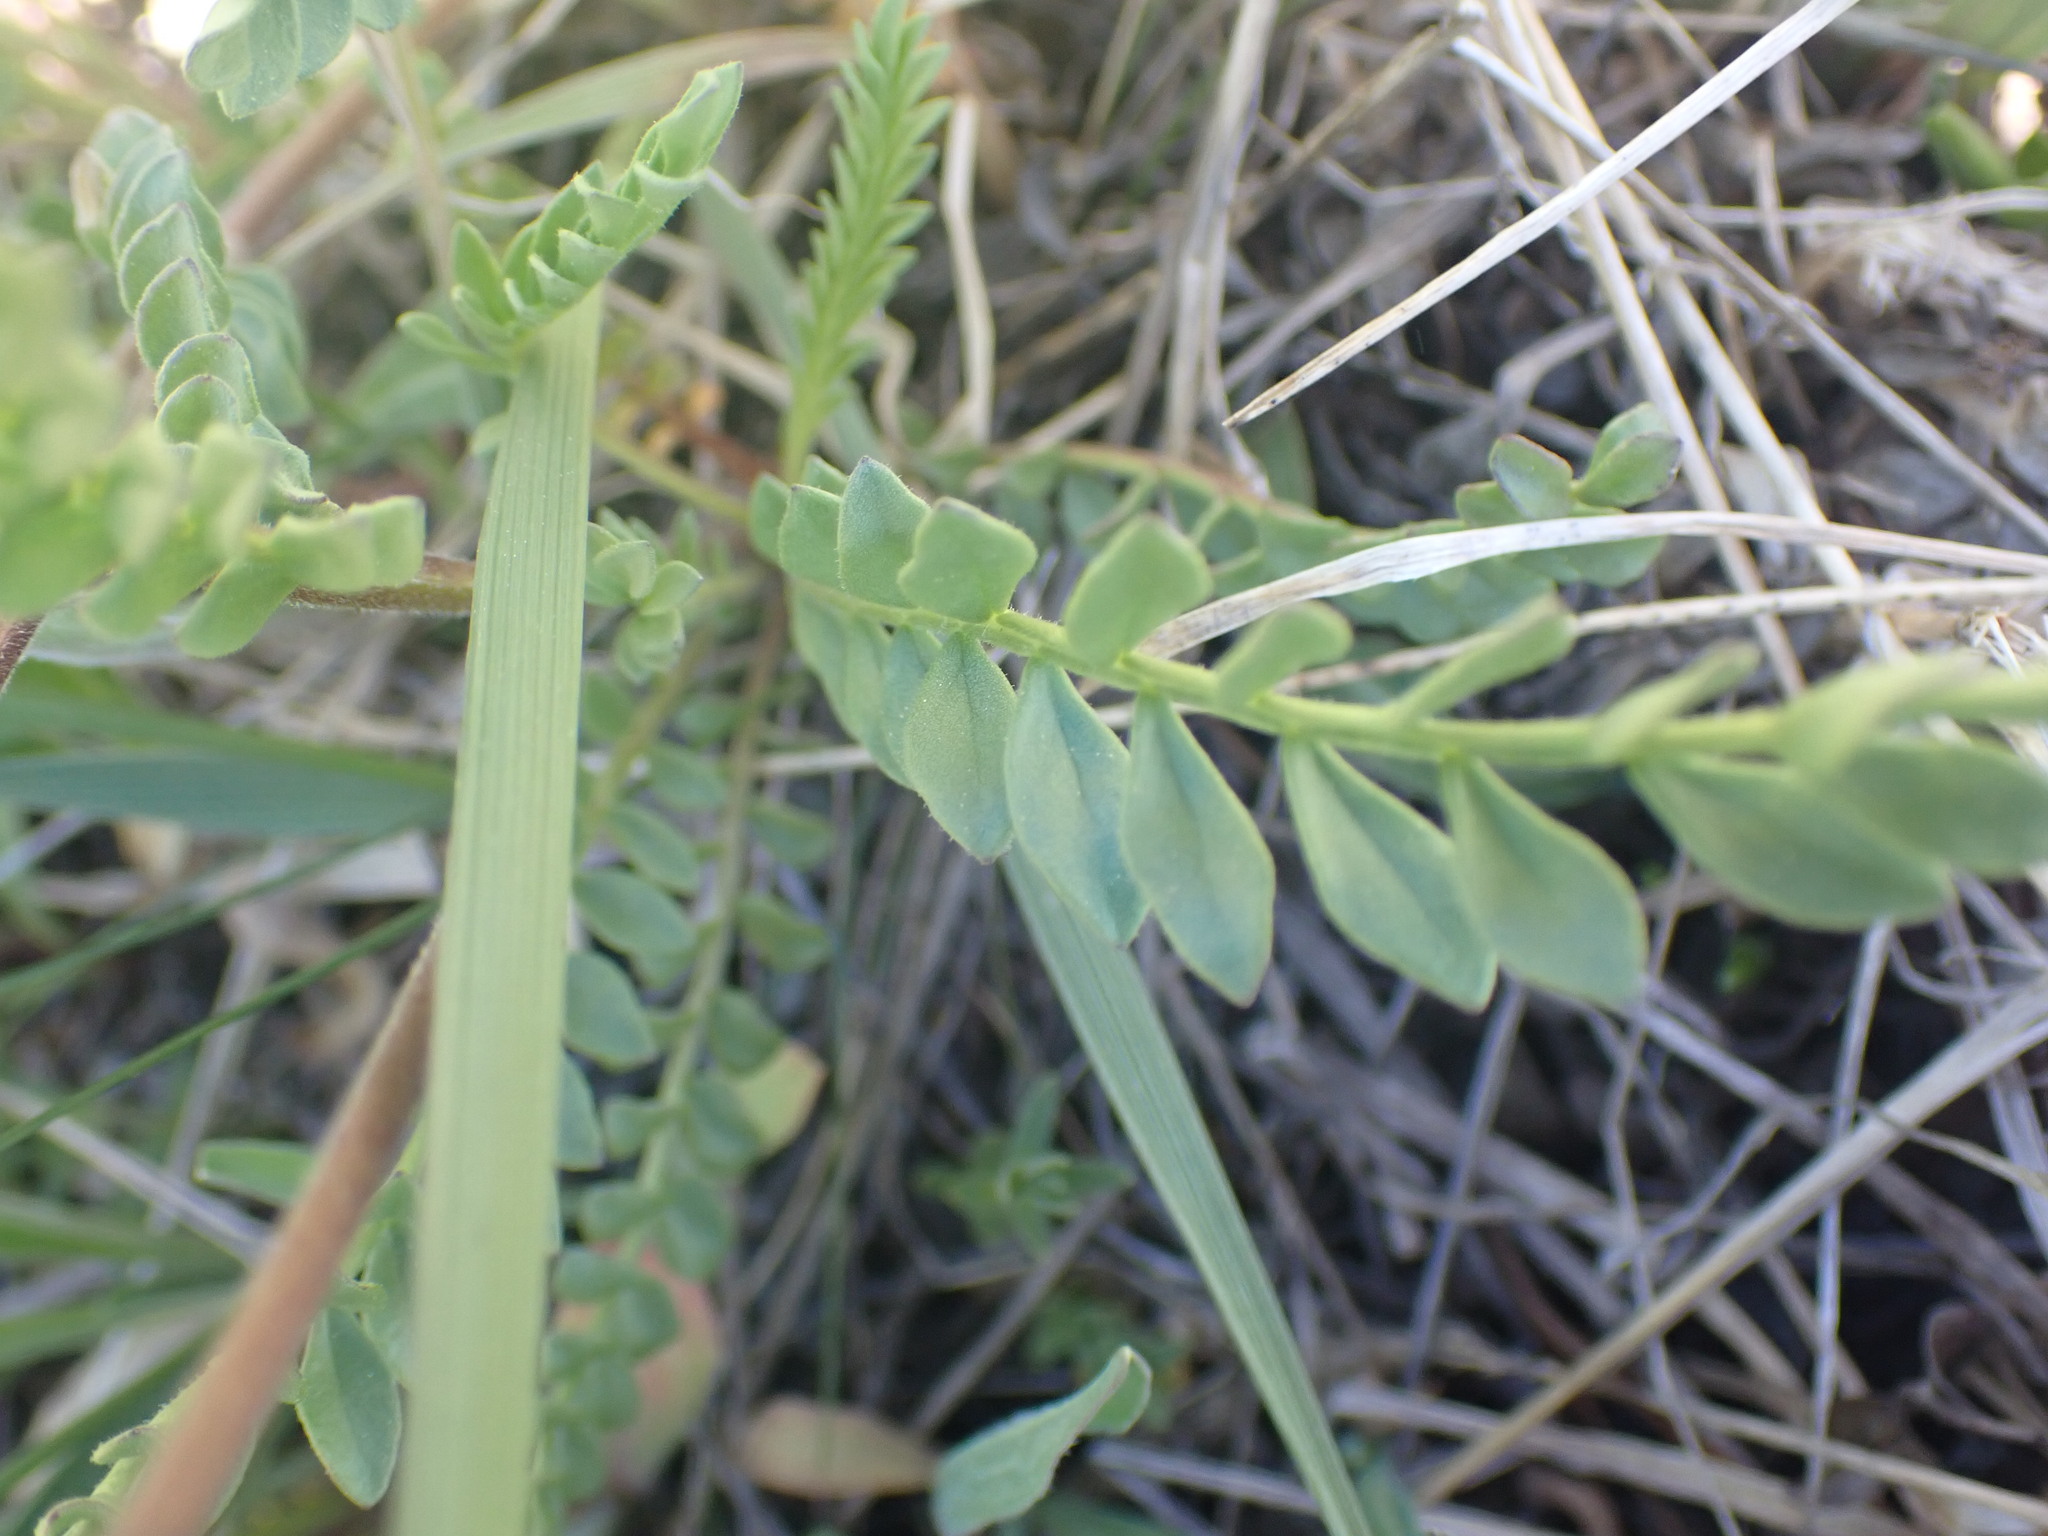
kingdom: Plantae
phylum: Tracheophyta
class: Magnoliopsida
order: Ericales
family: Polemoniaceae
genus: Polemonium
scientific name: Polemonium pulcherrimum
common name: Short jacob's-ladder
